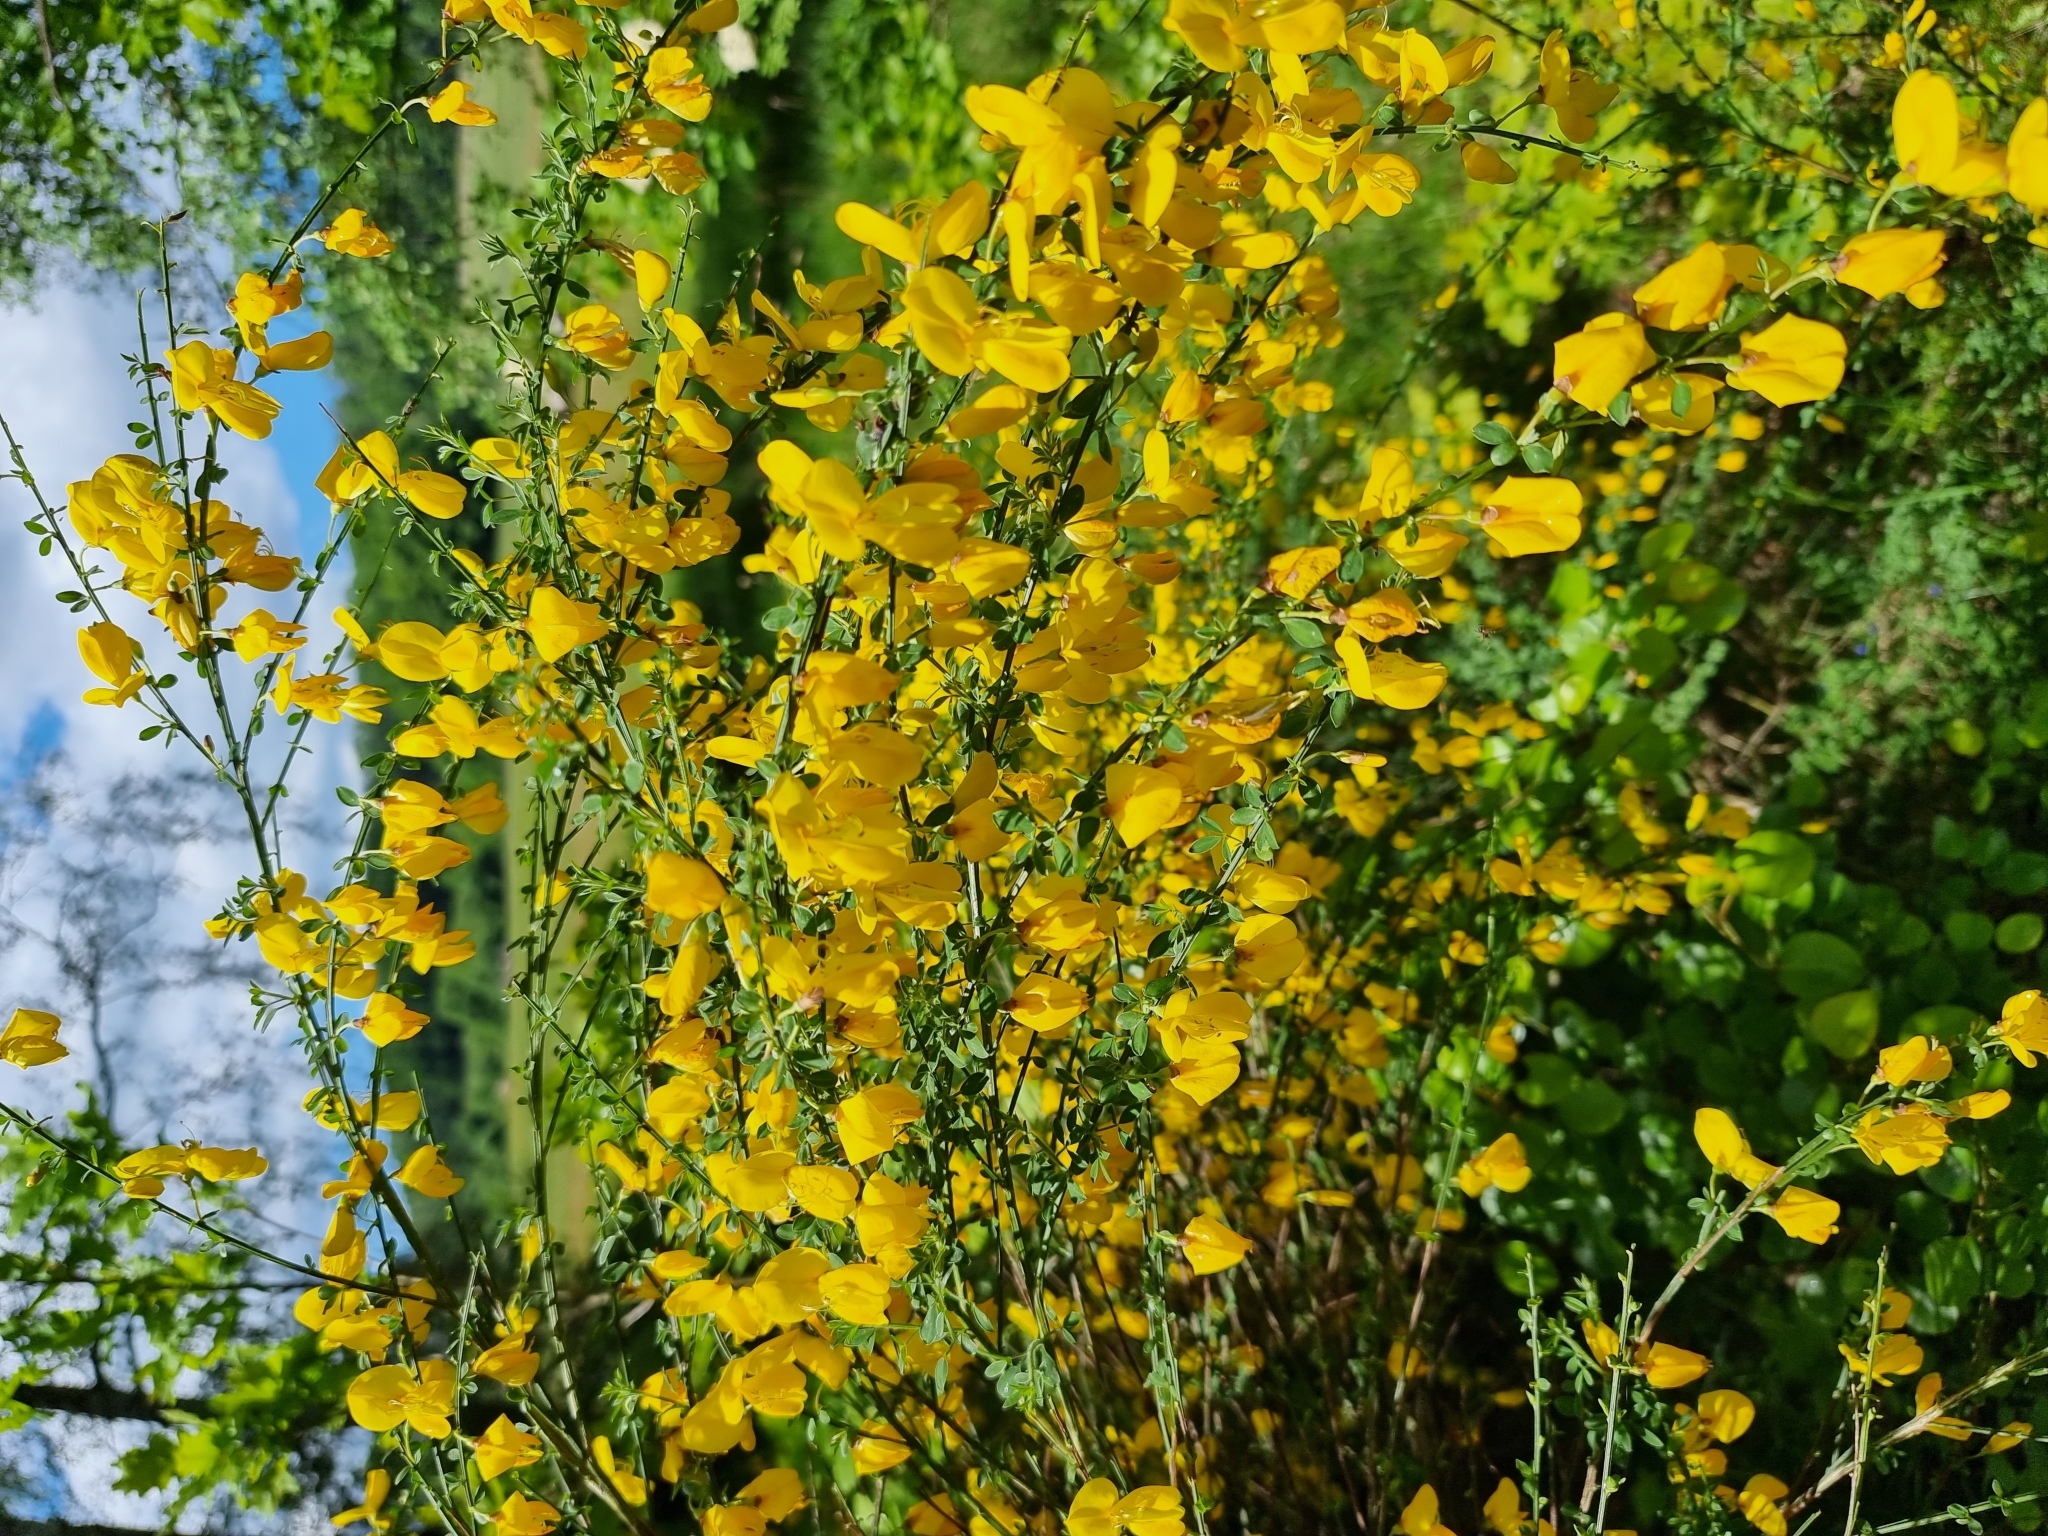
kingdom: Plantae
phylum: Tracheophyta
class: Magnoliopsida
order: Fabales
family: Fabaceae
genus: Cytisus
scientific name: Cytisus scoparius
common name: Scotch broom
